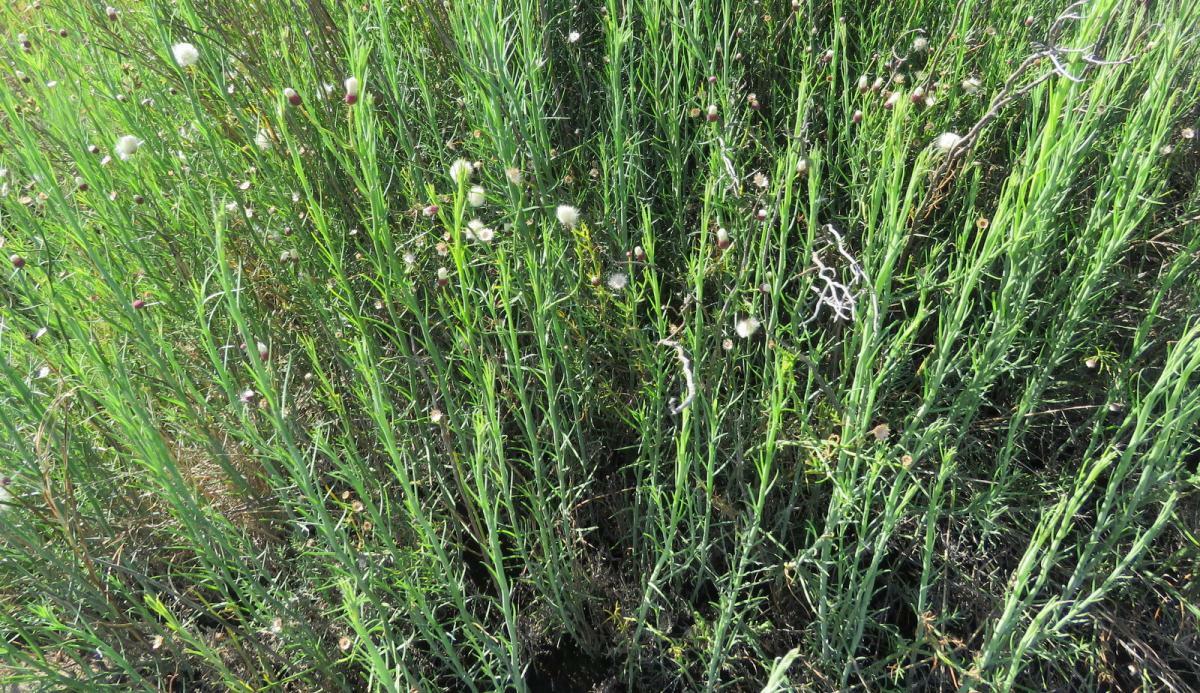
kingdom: Plantae
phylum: Tracheophyta
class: Magnoliopsida
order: Asterales
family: Asteraceae
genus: Baccharis
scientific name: Baccharis juncea
